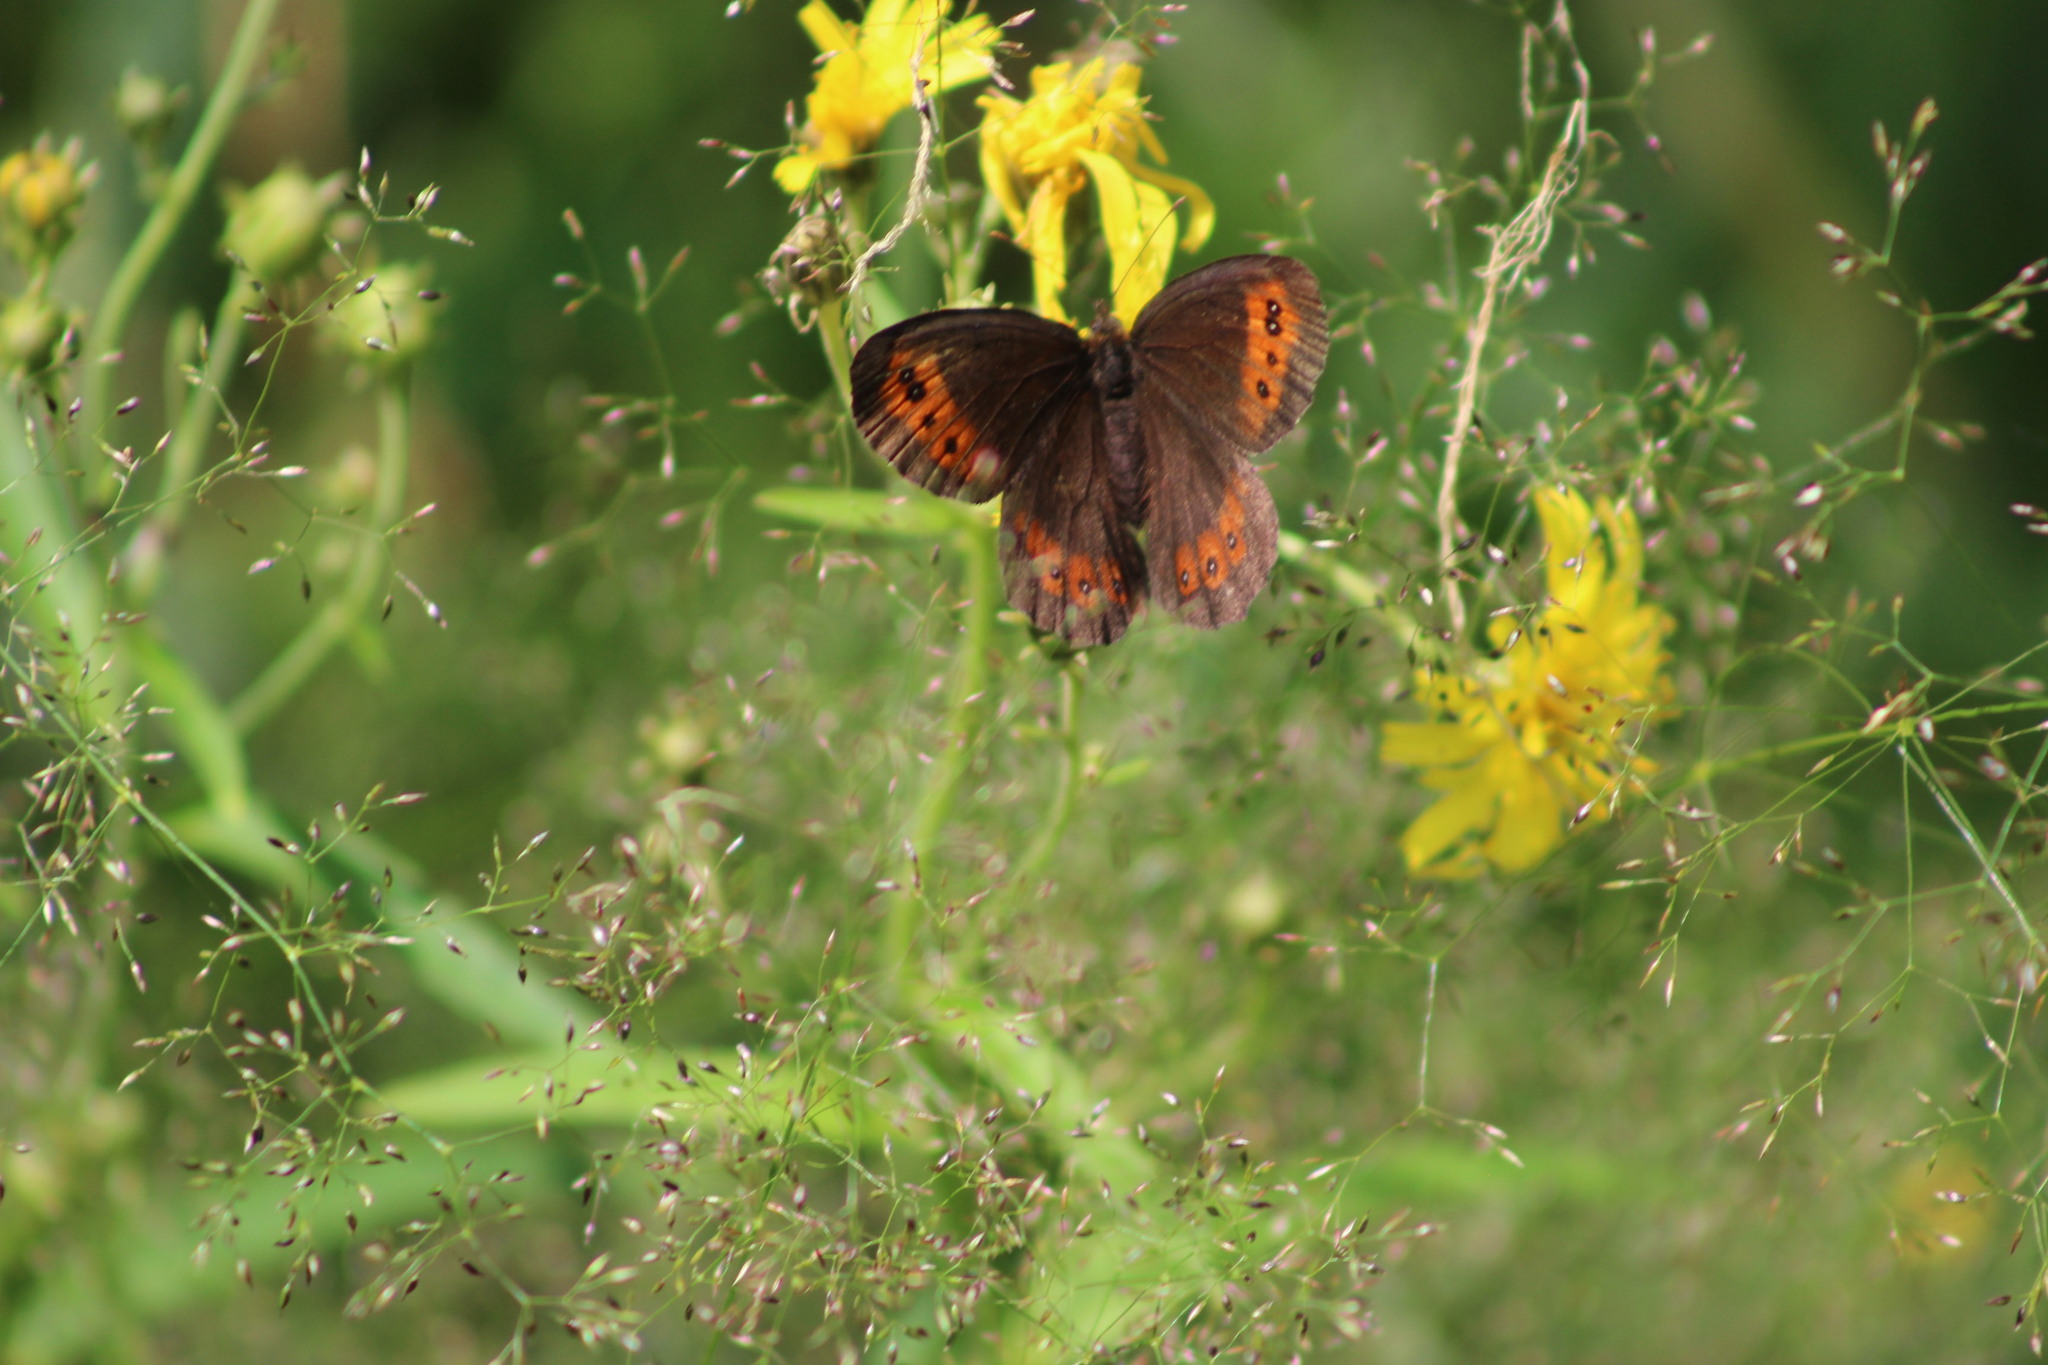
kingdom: Animalia
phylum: Arthropoda
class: Insecta
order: Lepidoptera
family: Nymphalidae
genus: Erebia
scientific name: Erebia ligea
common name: Arran brown
